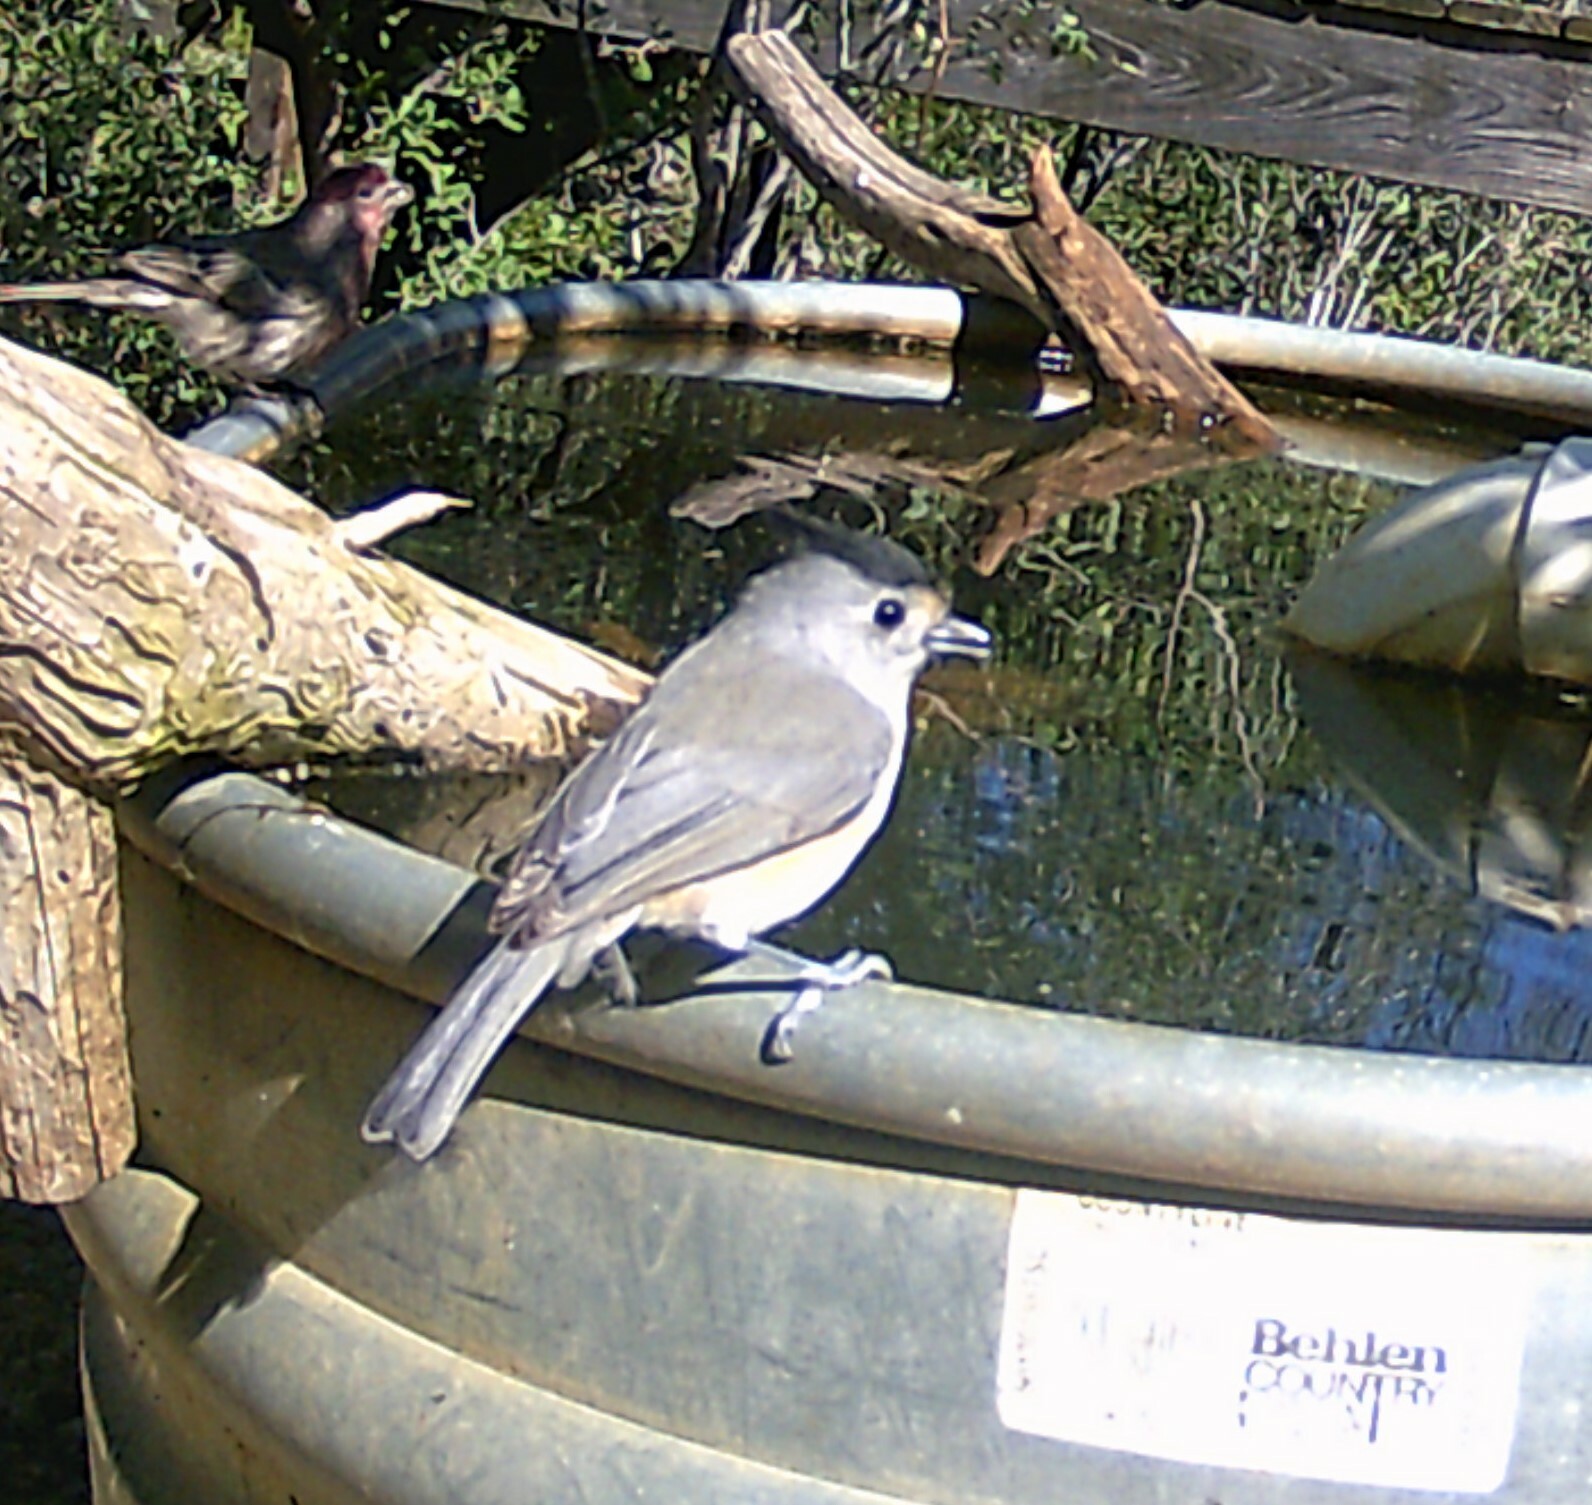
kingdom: Animalia
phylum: Chordata
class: Aves
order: Passeriformes
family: Paridae
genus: Baeolophus
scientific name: Baeolophus atricristatus
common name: Black-crested titmouse
